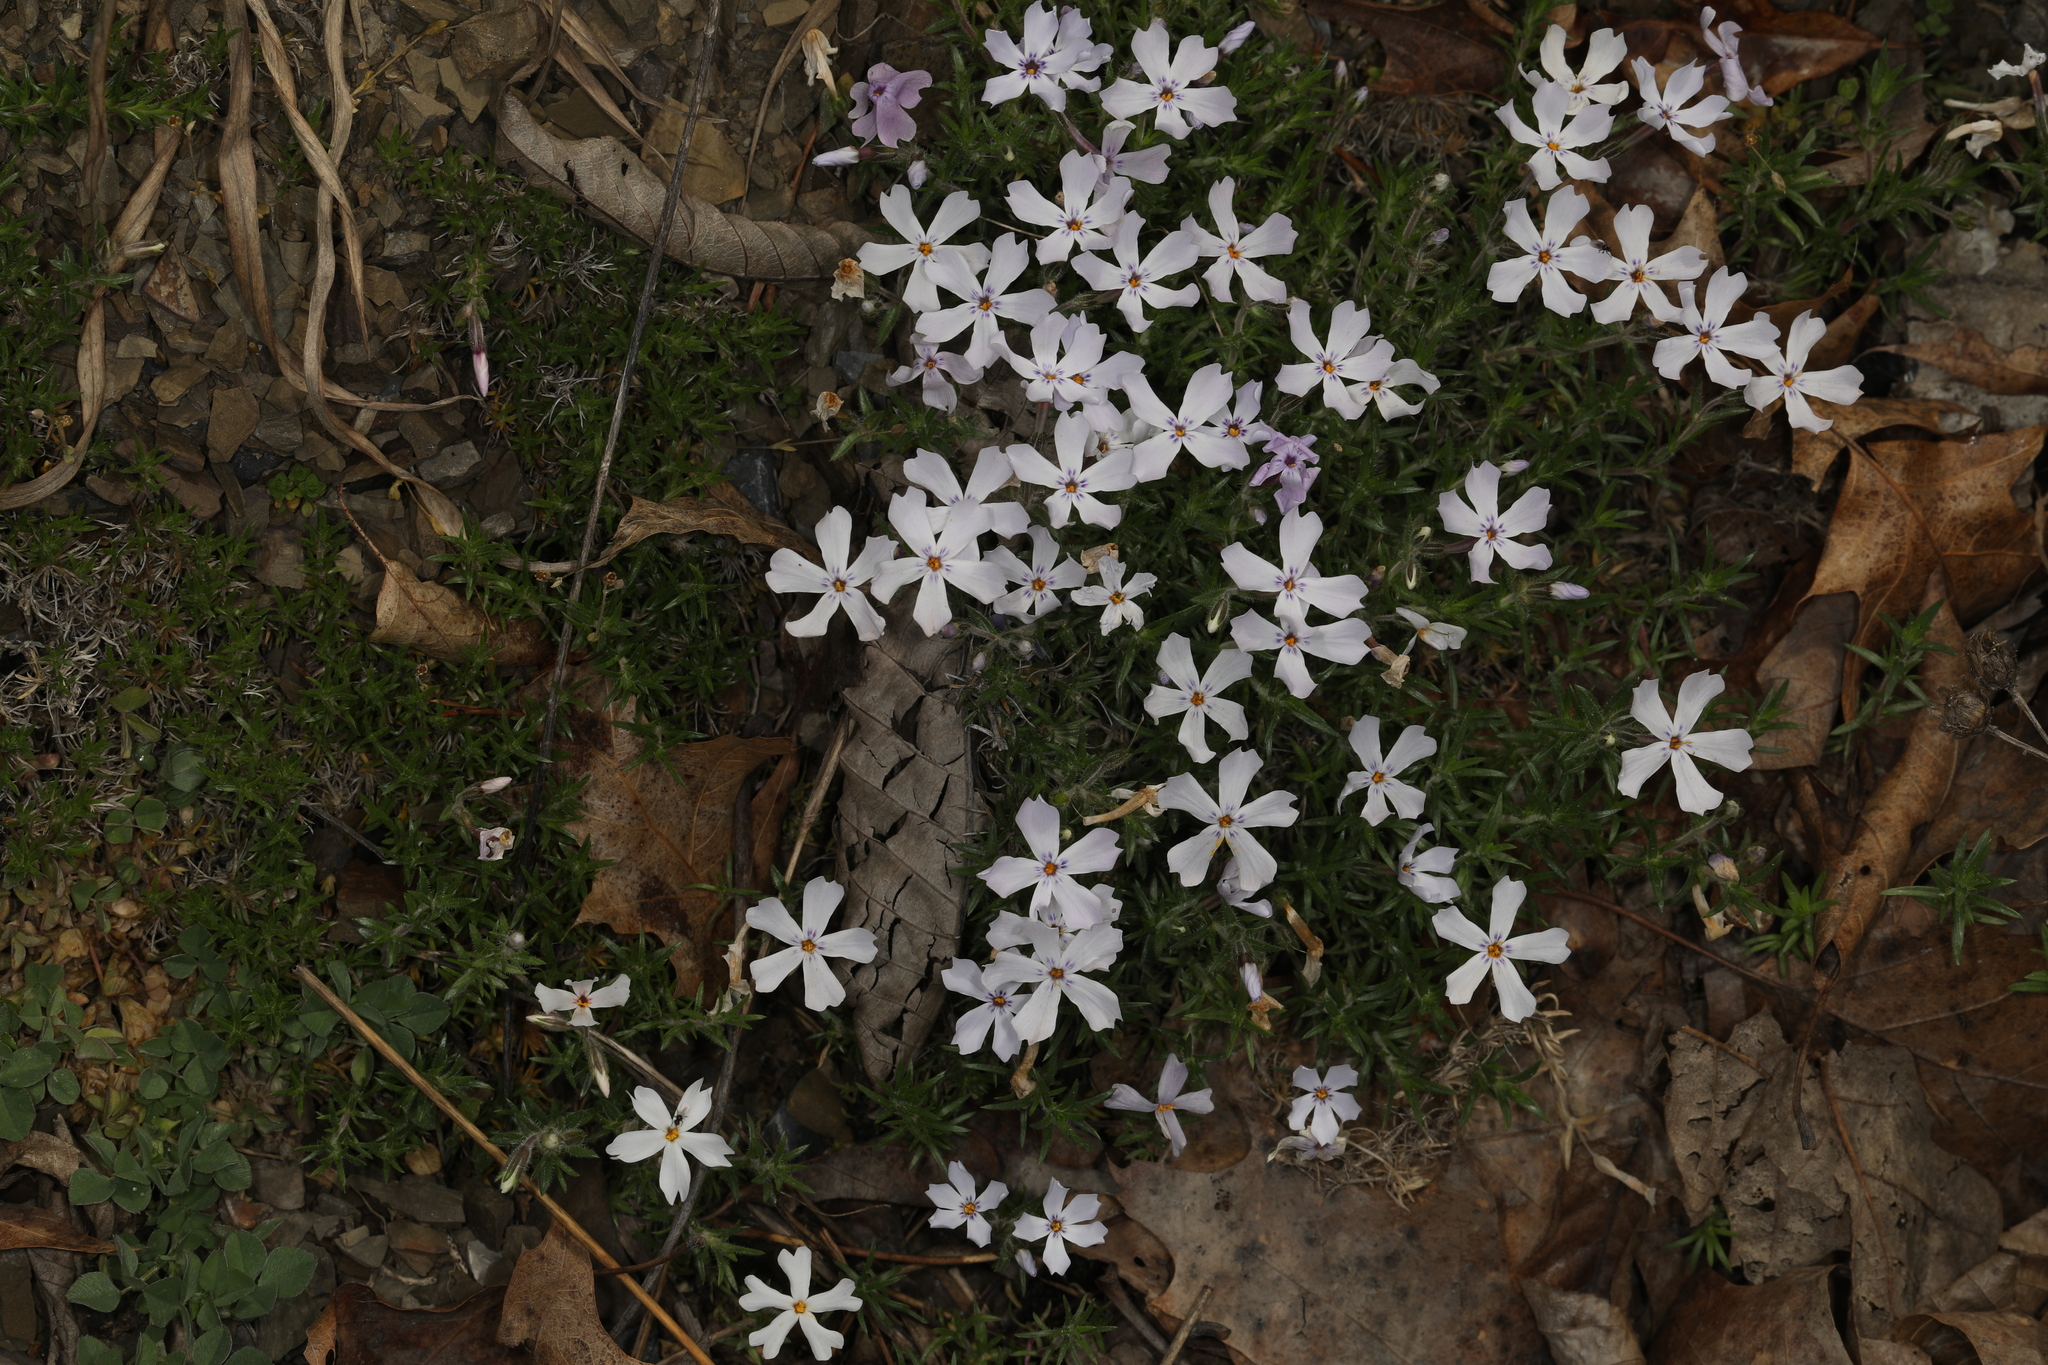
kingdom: Plantae
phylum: Tracheophyta
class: Magnoliopsida
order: Ericales
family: Polemoniaceae
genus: Phlox
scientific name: Phlox subulata
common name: Moss phlox
